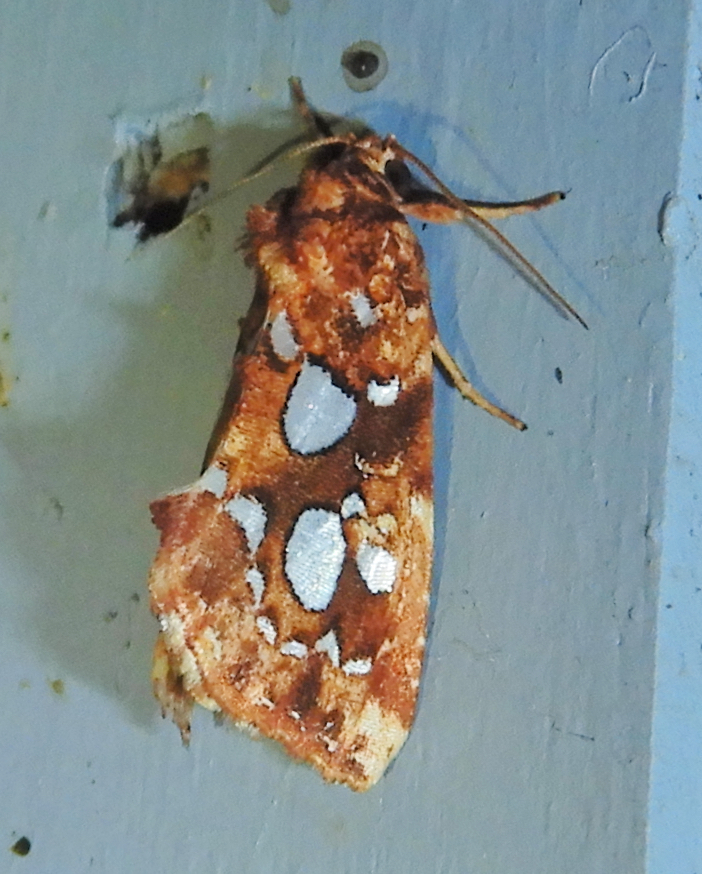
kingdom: Animalia
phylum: Arthropoda
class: Insecta
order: Lepidoptera
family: Noctuidae
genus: Callopistria
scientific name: Callopistria cordata
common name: Silver-spotted fern moth
